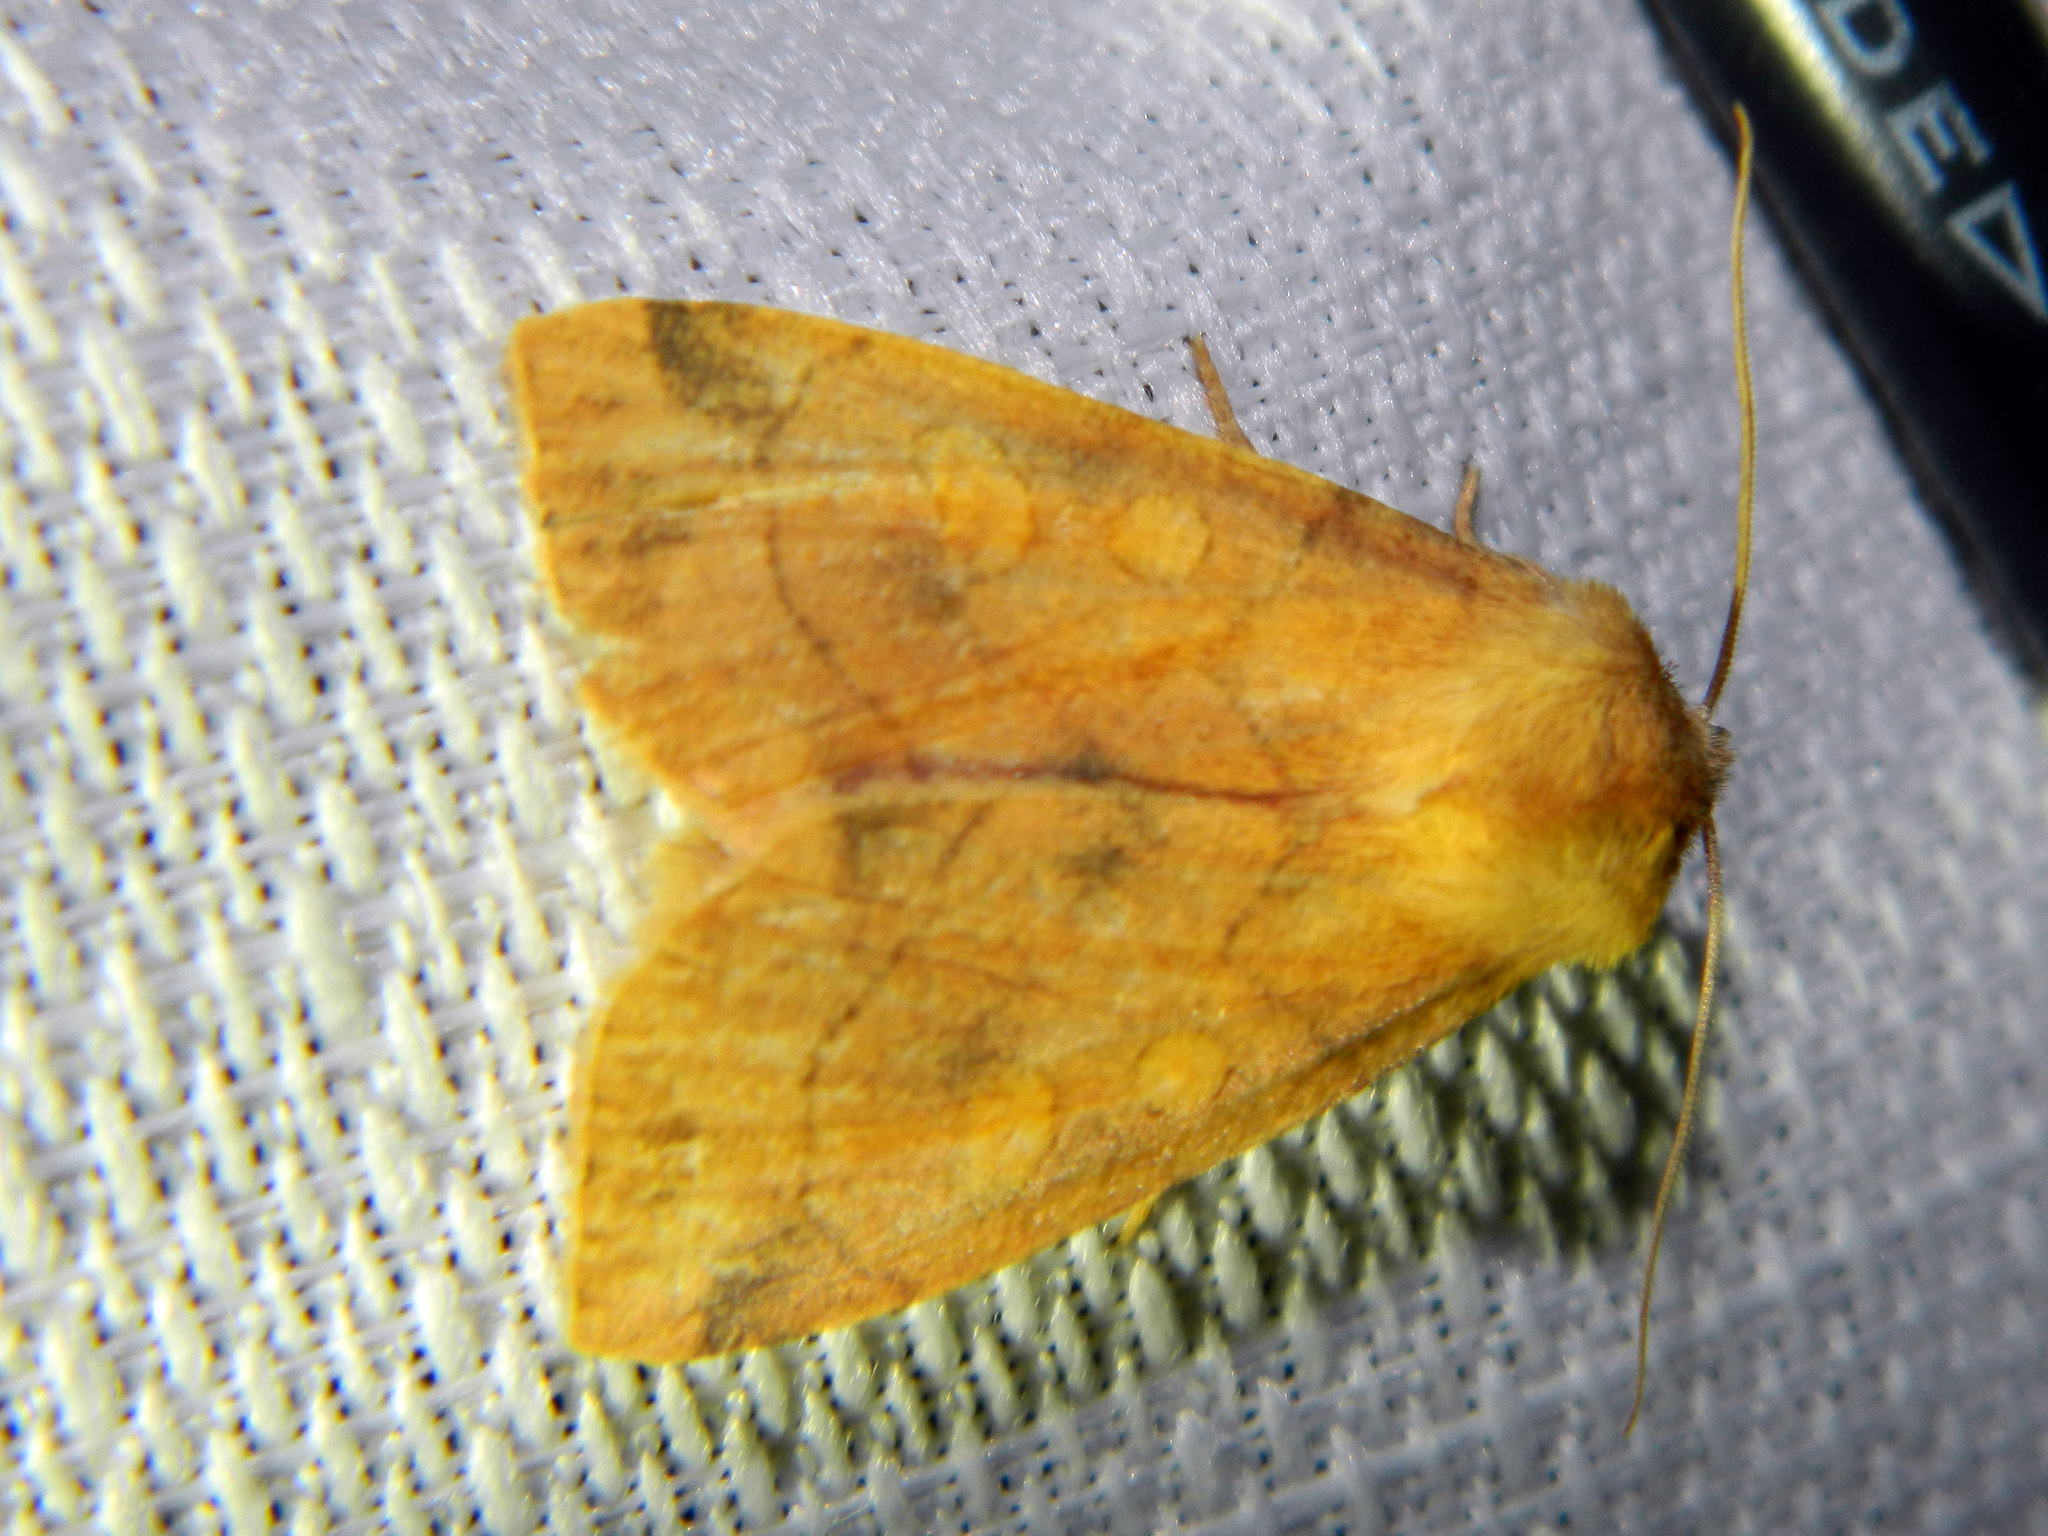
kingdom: Animalia
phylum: Arthropoda
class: Insecta
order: Lepidoptera
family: Noctuidae
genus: Enargia
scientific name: Enargia decolor
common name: Aspen twoleaf tier moth
